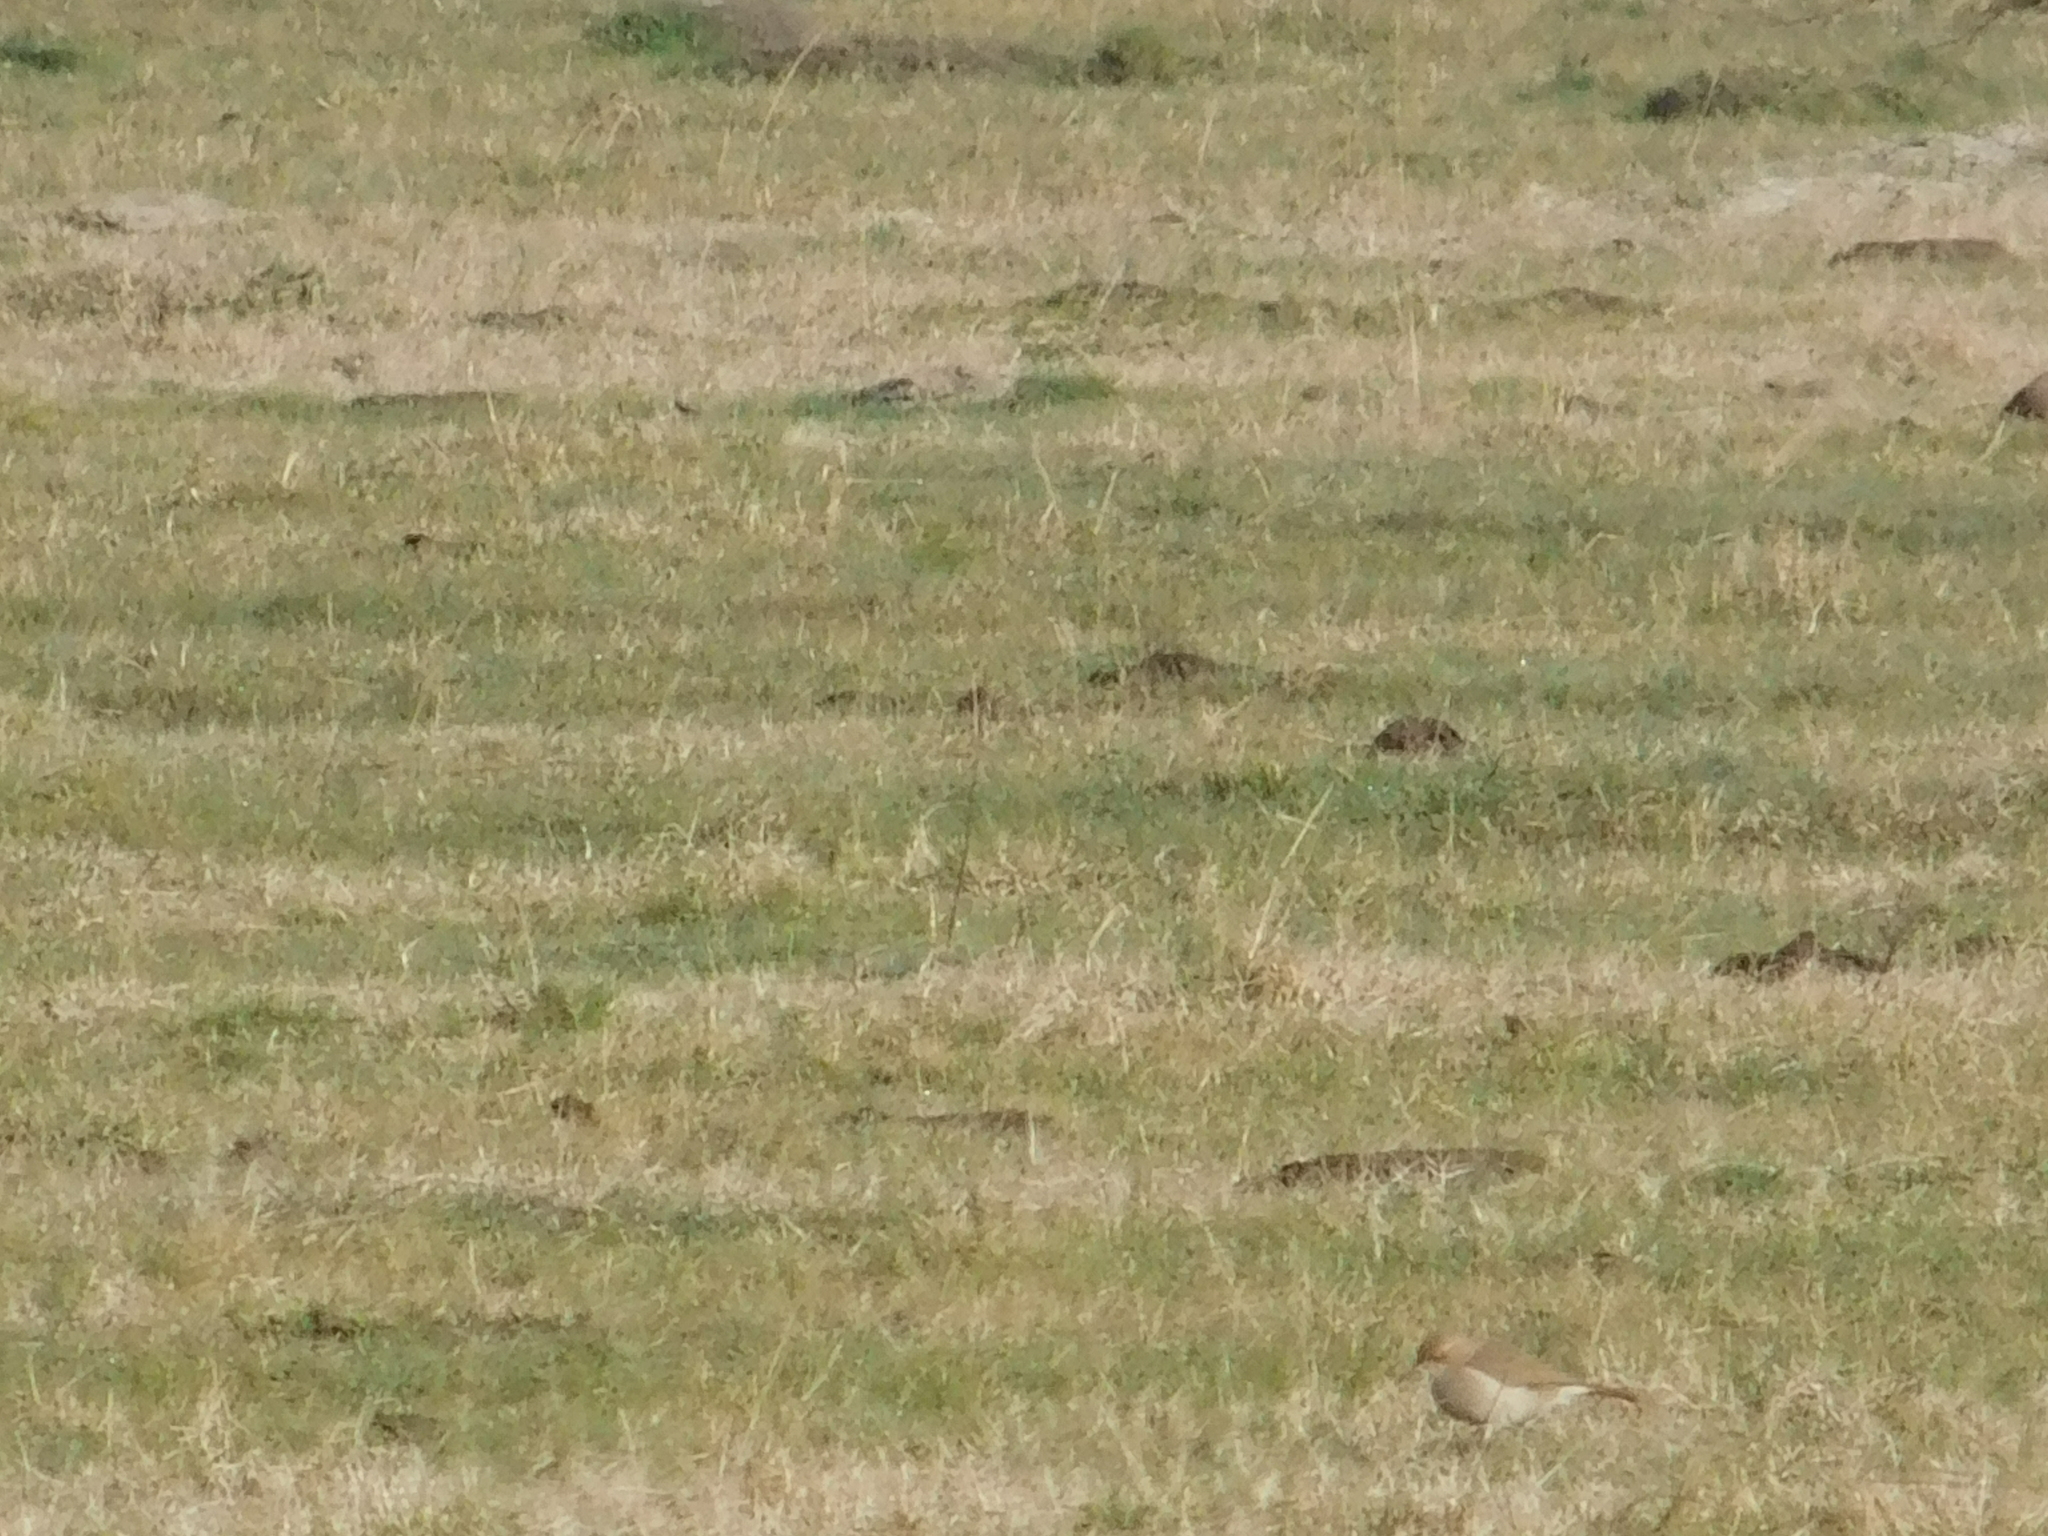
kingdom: Animalia
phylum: Chordata
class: Aves
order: Passeriformes
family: Furnariidae
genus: Furnarius
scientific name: Furnarius rufus
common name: Rufous hornero
